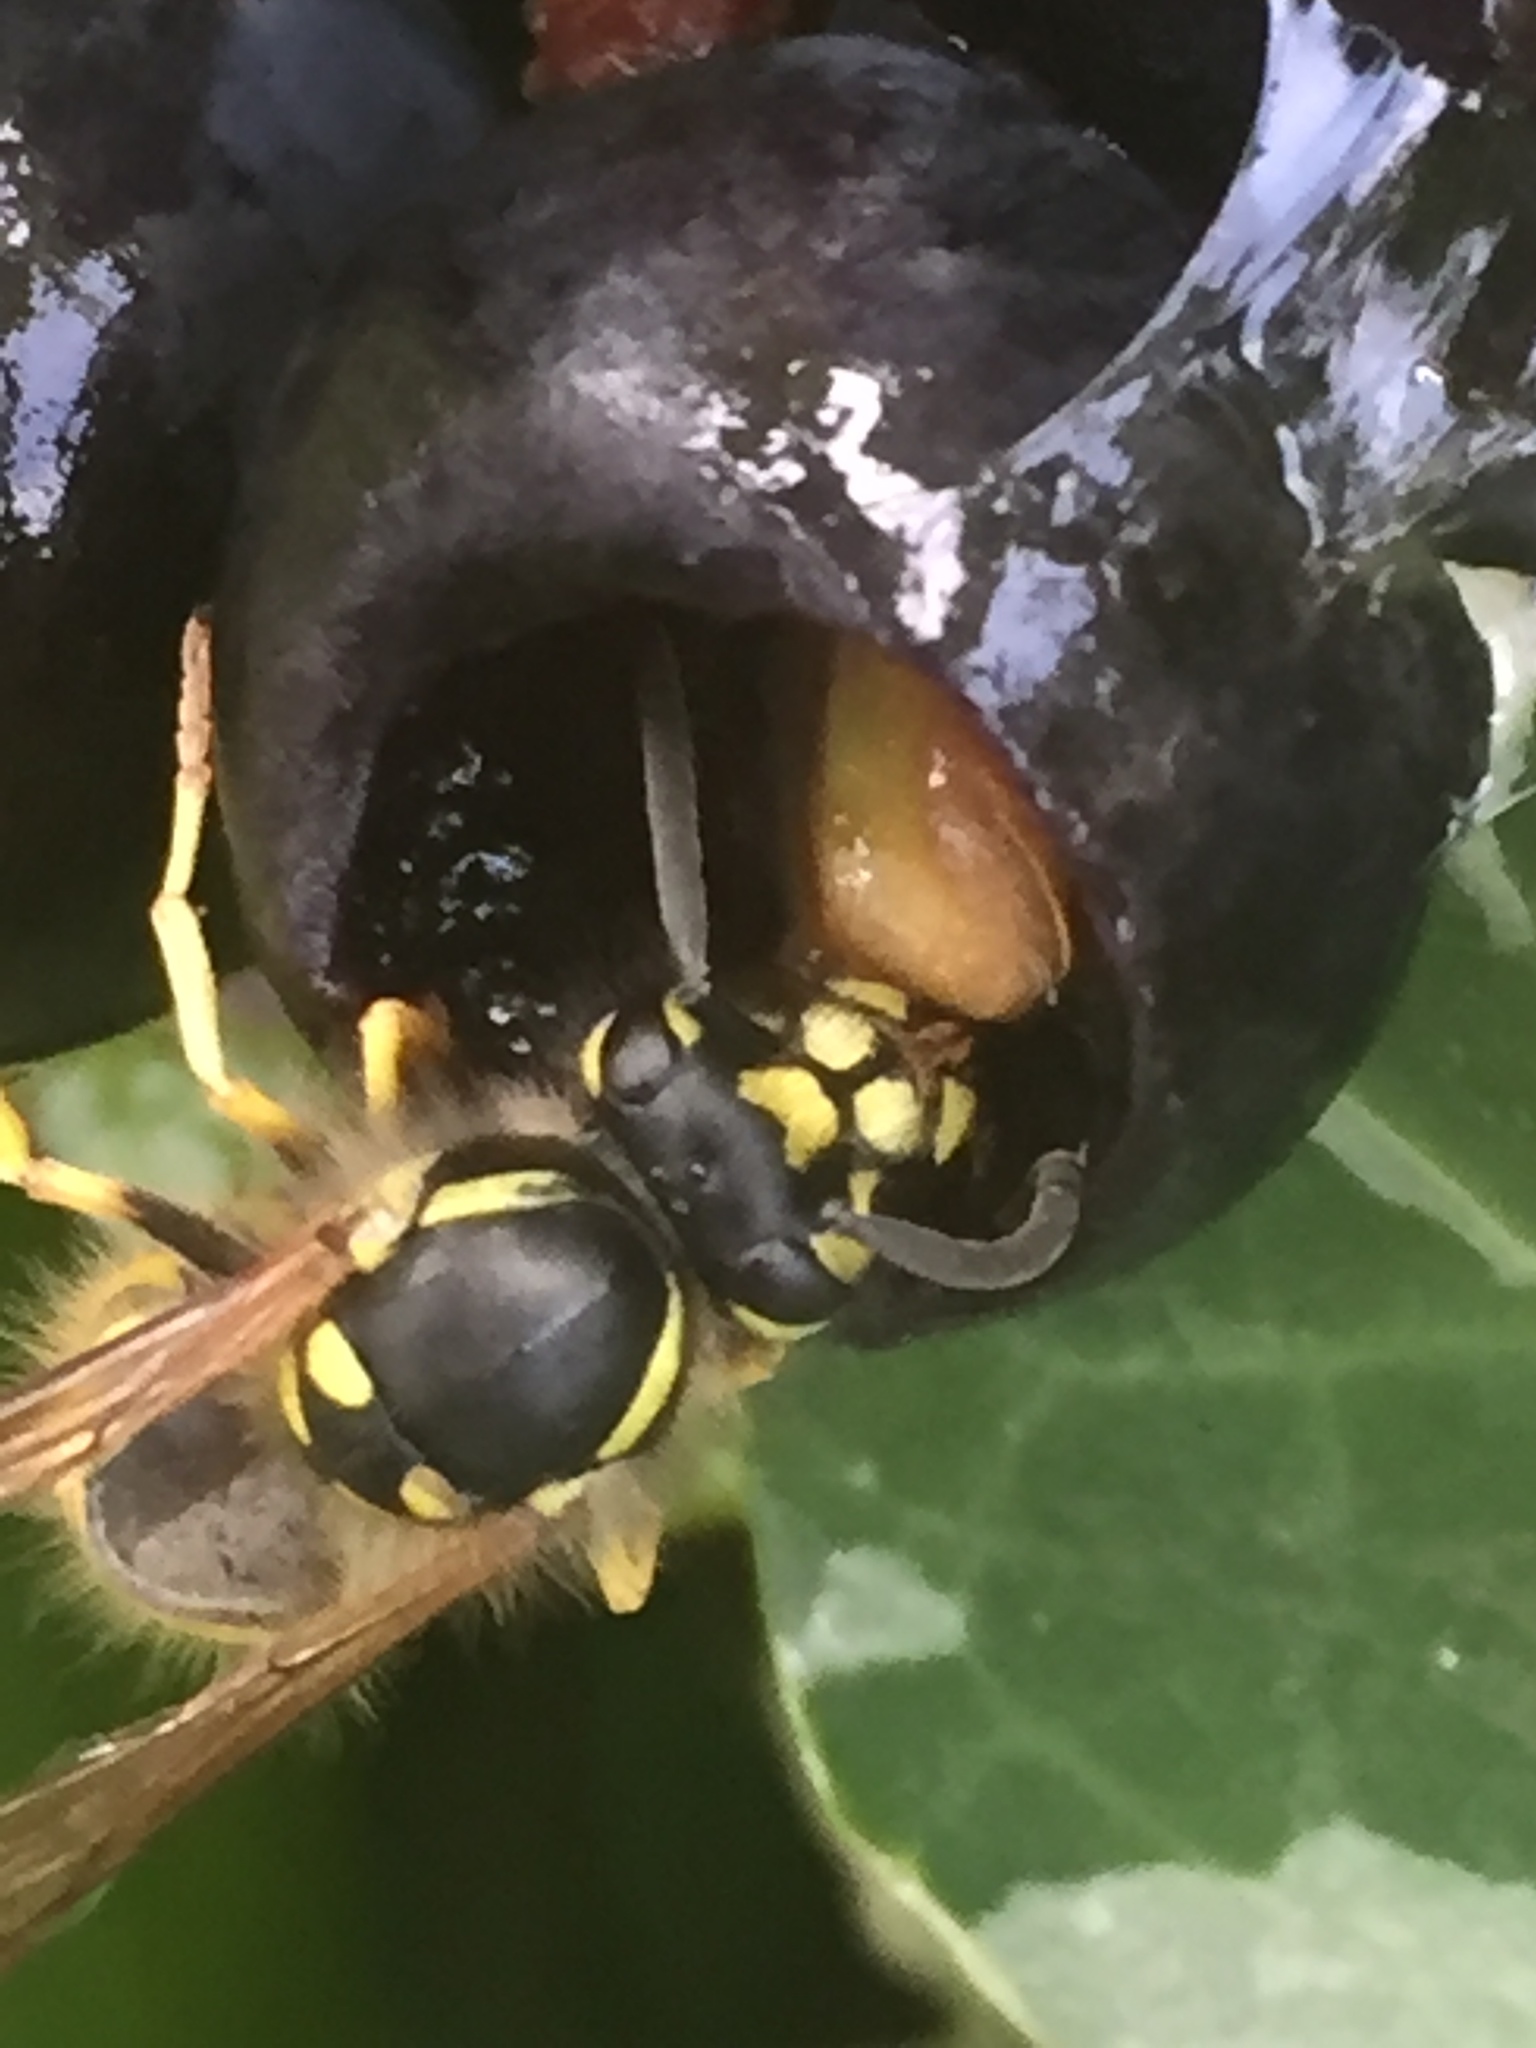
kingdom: Animalia
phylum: Arthropoda
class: Insecta
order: Hymenoptera
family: Vespidae
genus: Vespula
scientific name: Vespula vulgaris
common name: Common wasp
